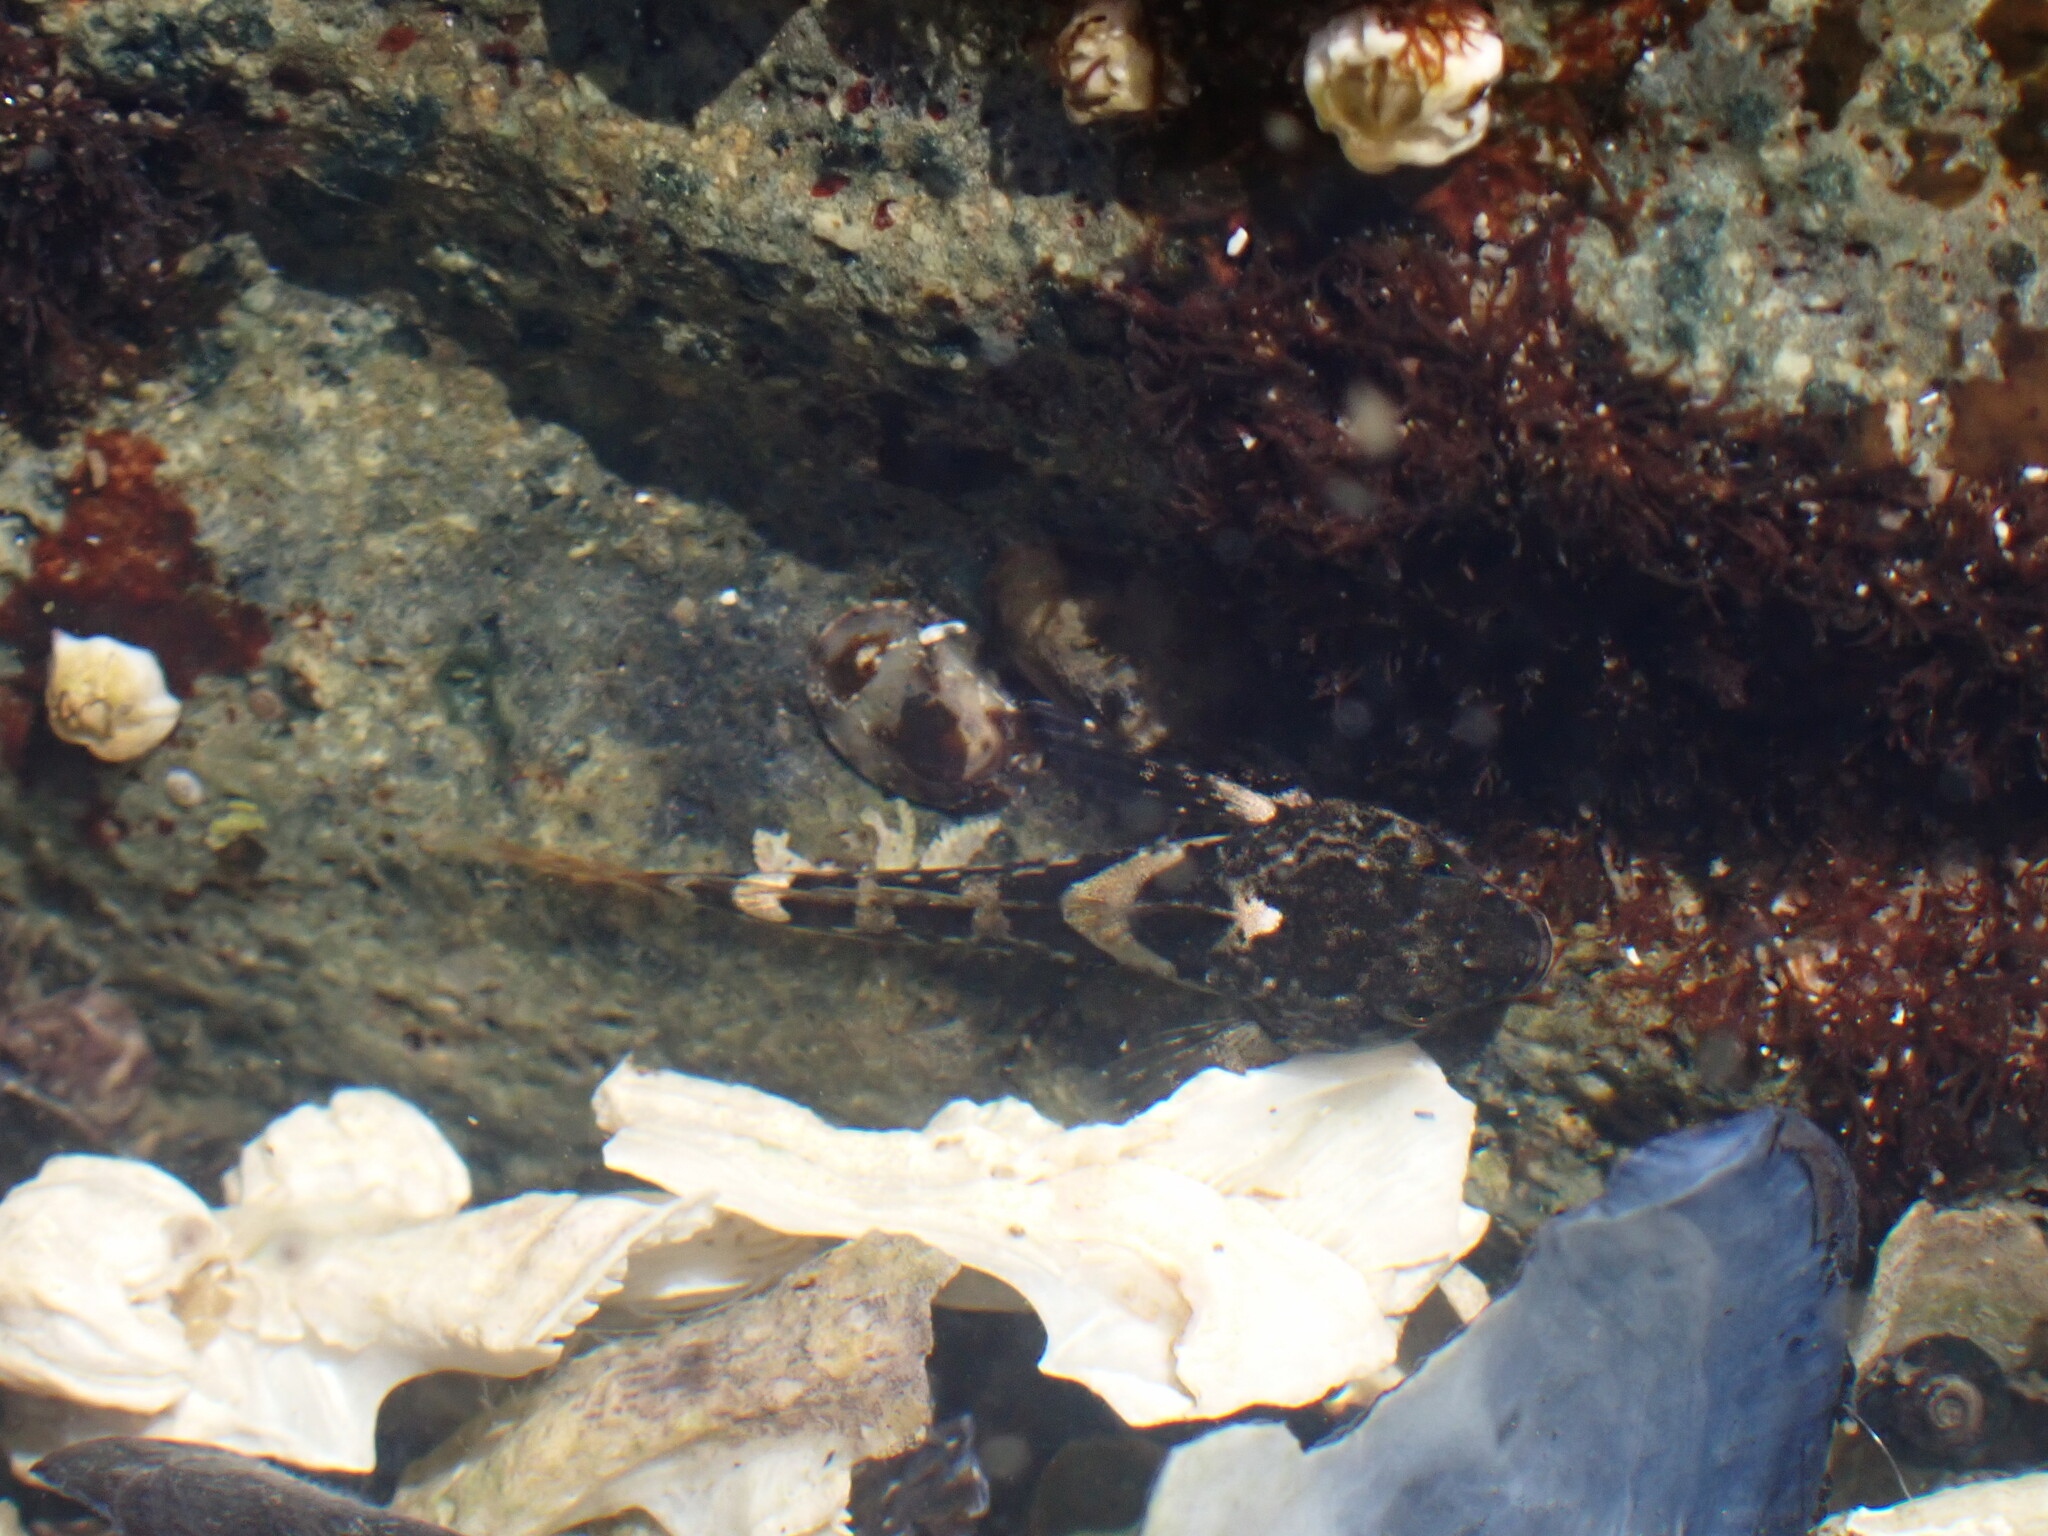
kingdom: Animalia
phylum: Chordata
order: Scorpaeniformes
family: Cottidae
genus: Oligocottus
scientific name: Oligocottus maculosus
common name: Tidepool sculpin
